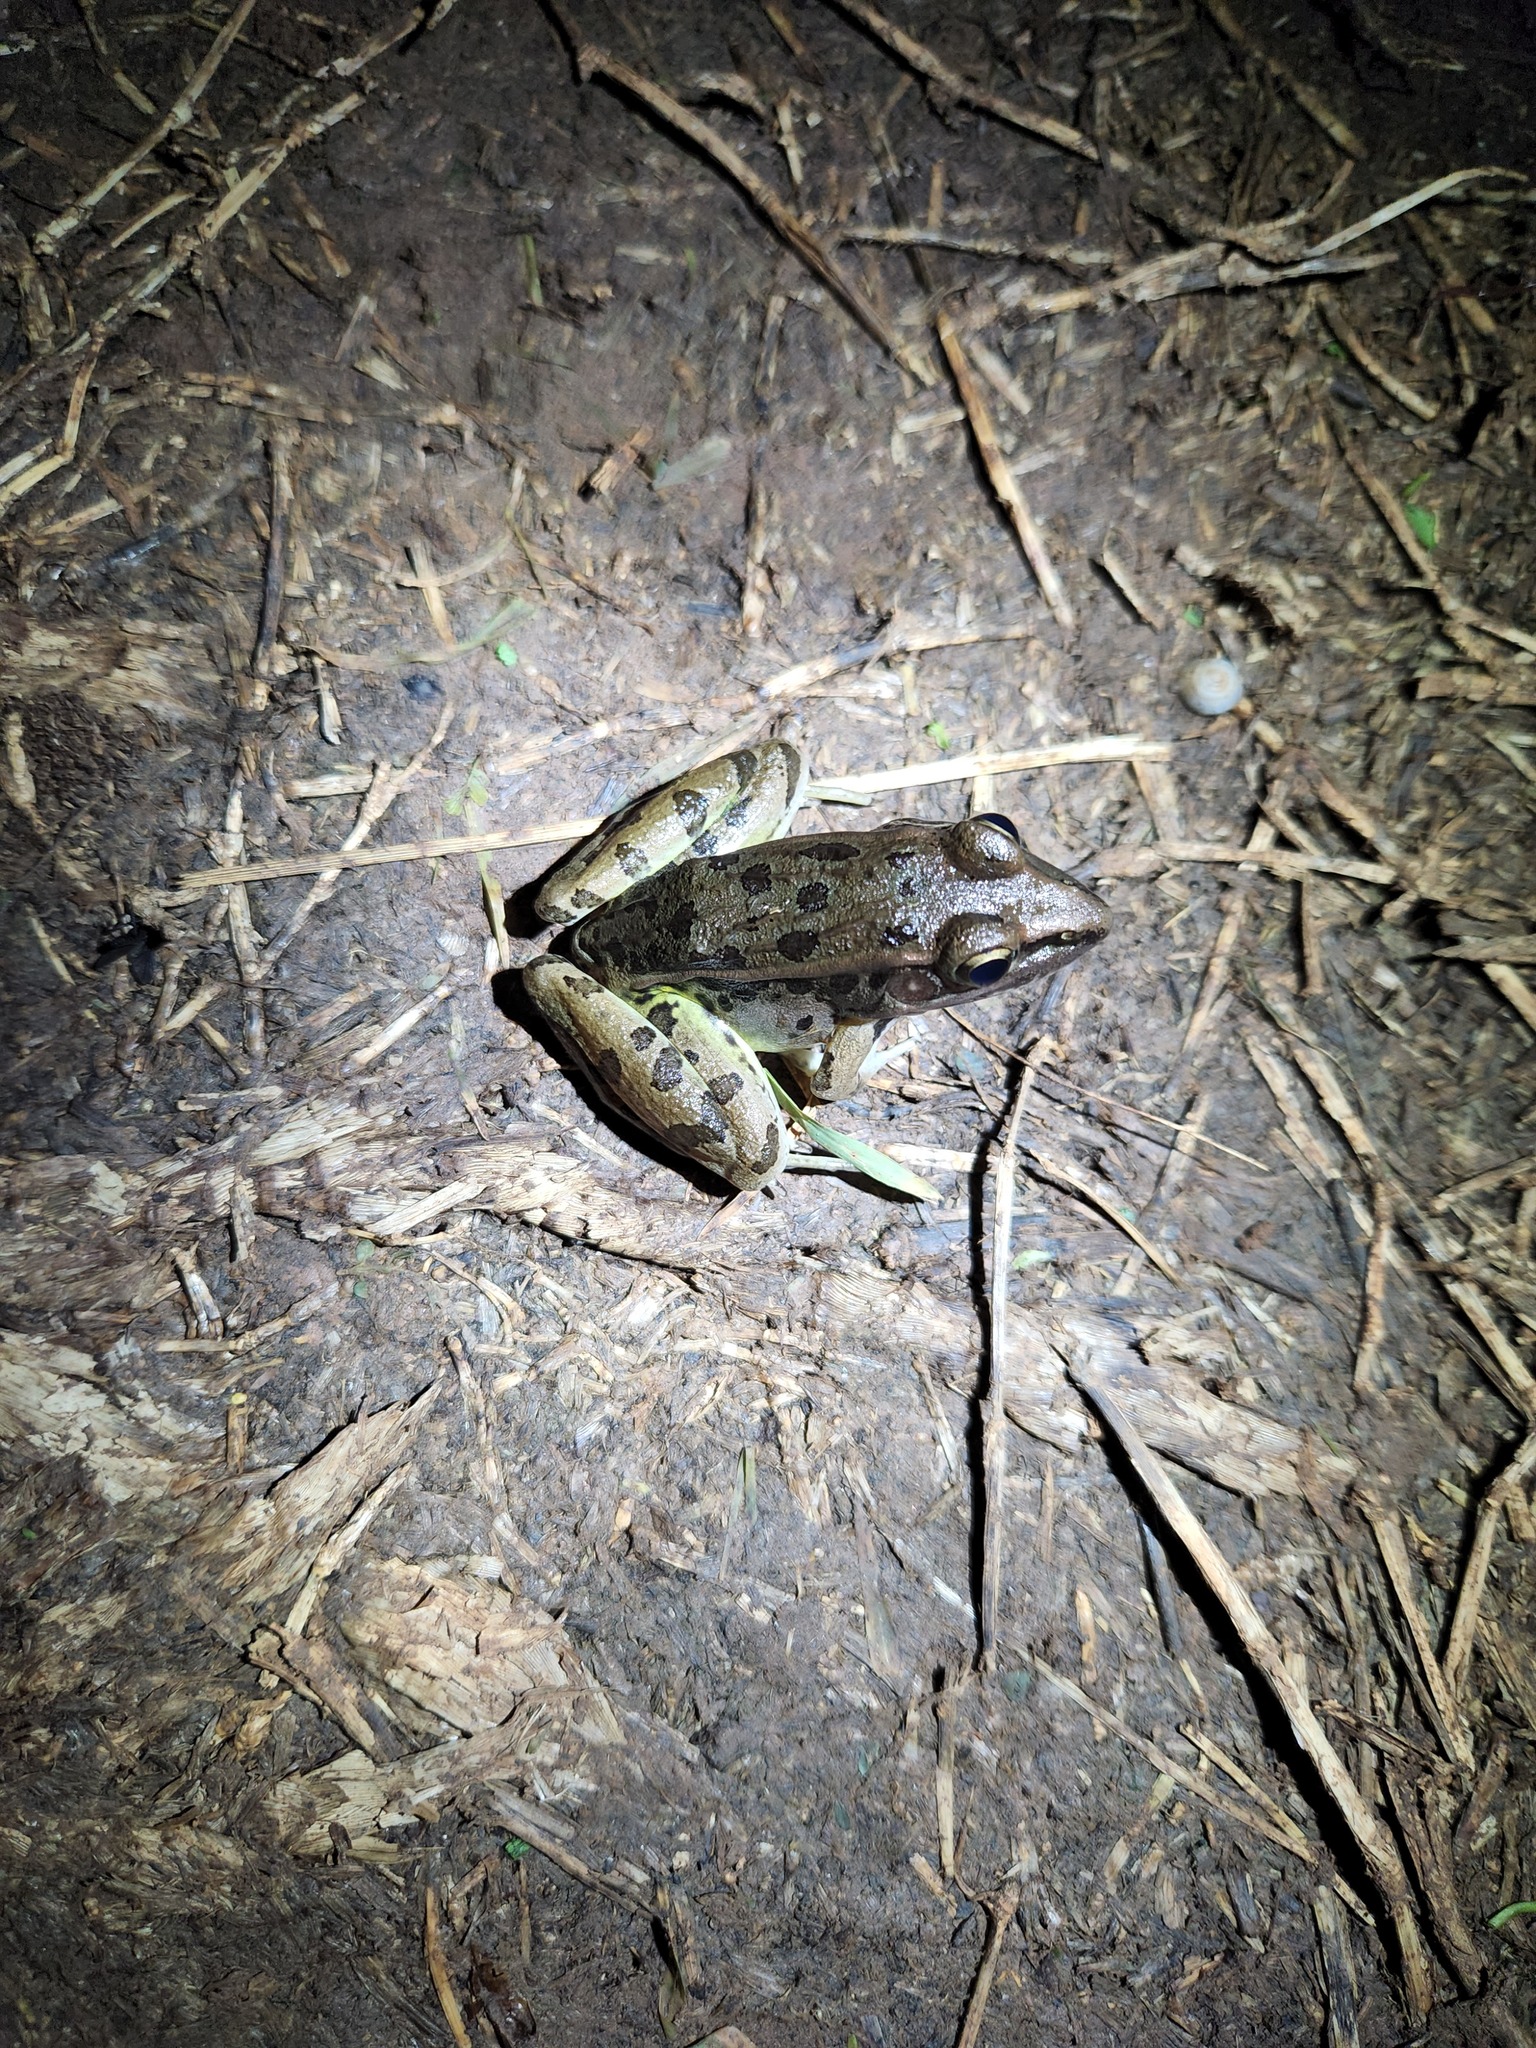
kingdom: Animalia
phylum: Chordata
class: Amphibia
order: Anura
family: Ranidae
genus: Lithobates
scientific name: Lithobates sphenocephalus
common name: Southern leopard frog
